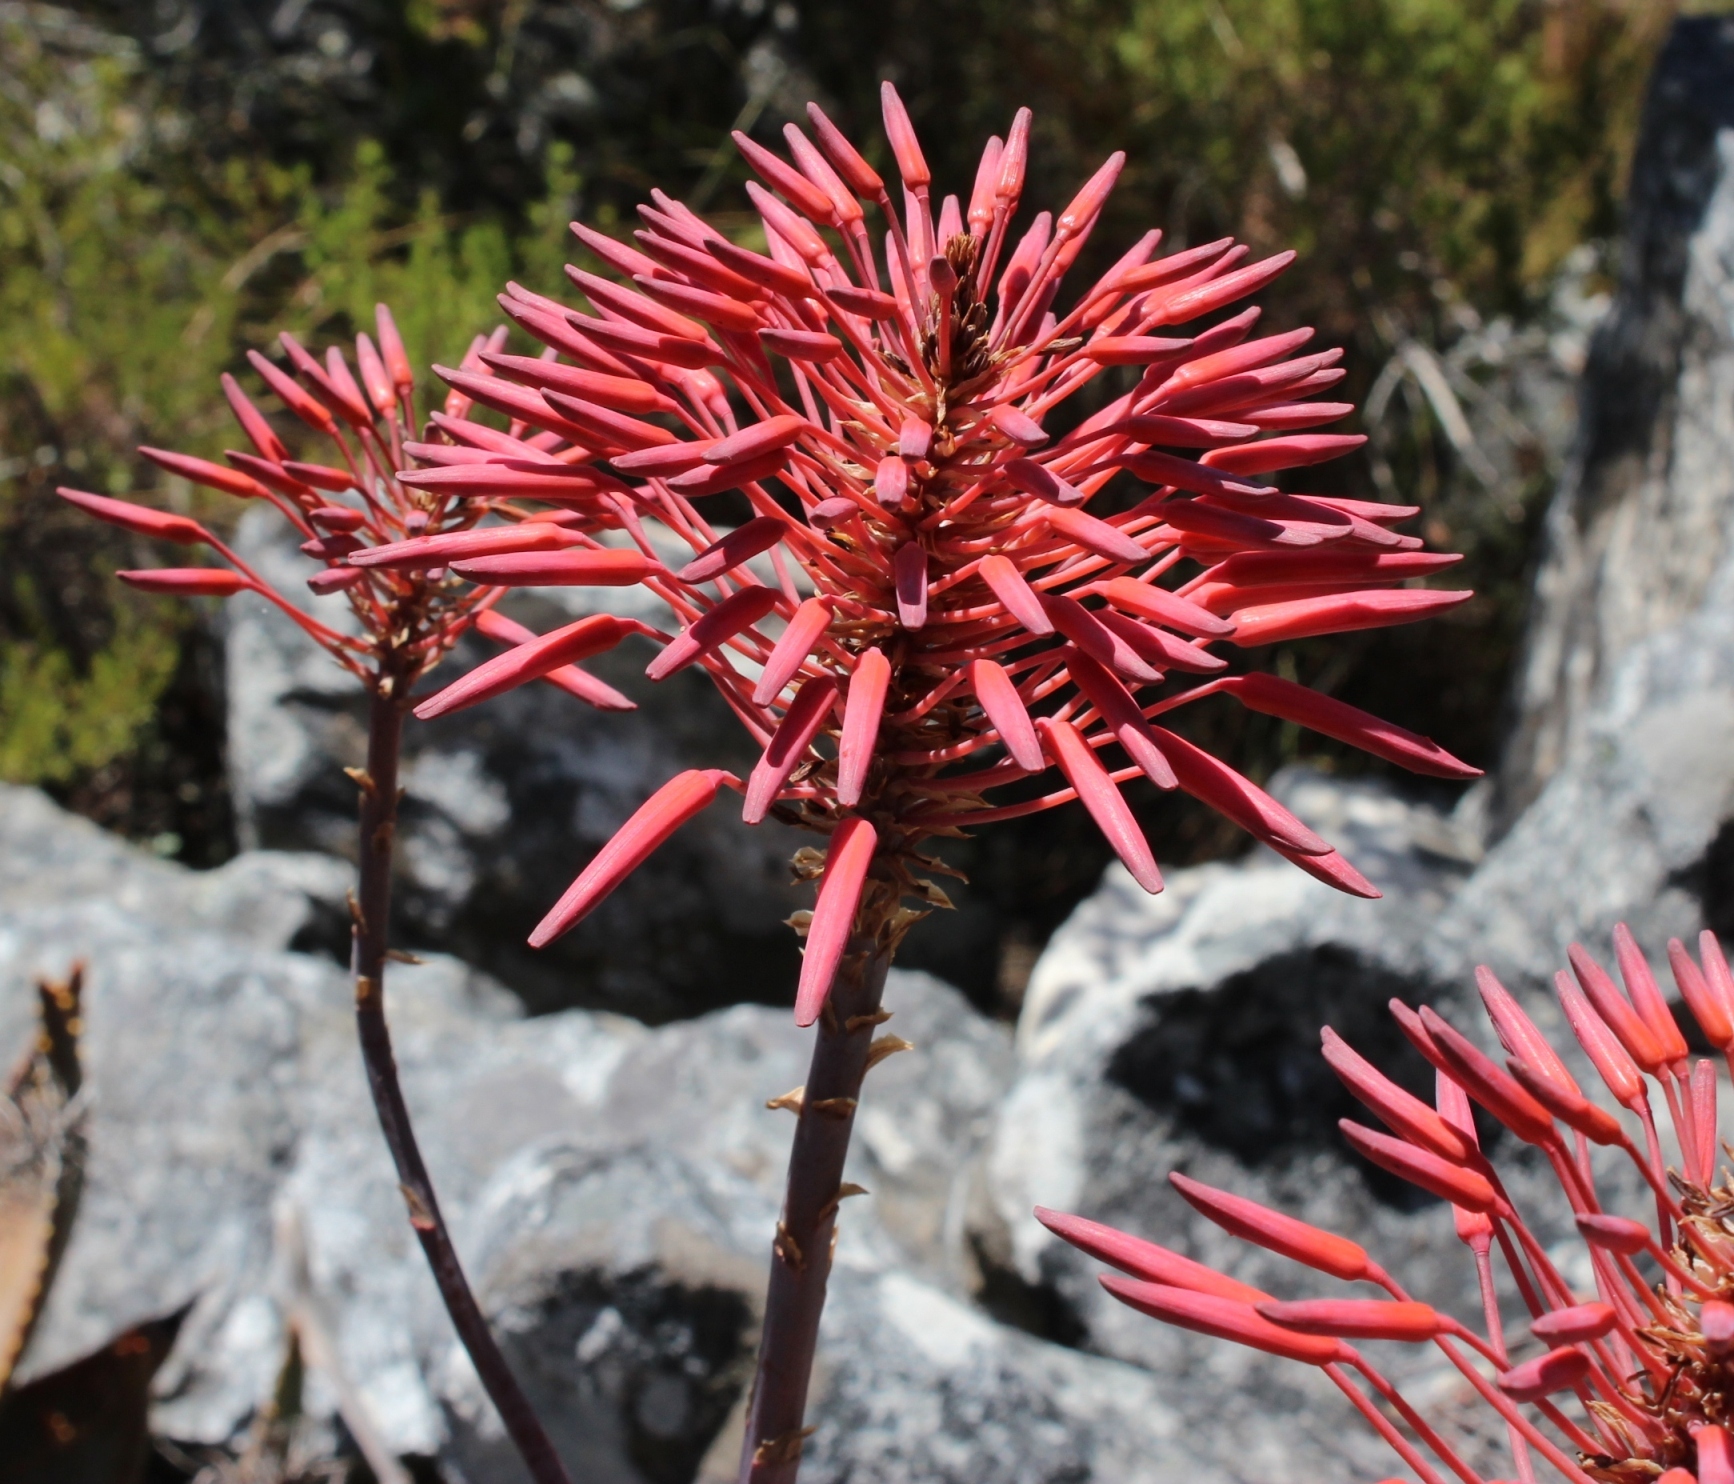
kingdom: Plantae
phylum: Tracheophyta
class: Liliopsida
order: Asparagales
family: Asphodelaceae
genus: Aloe
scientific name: Aloe perfoliata
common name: Mitra aloe
